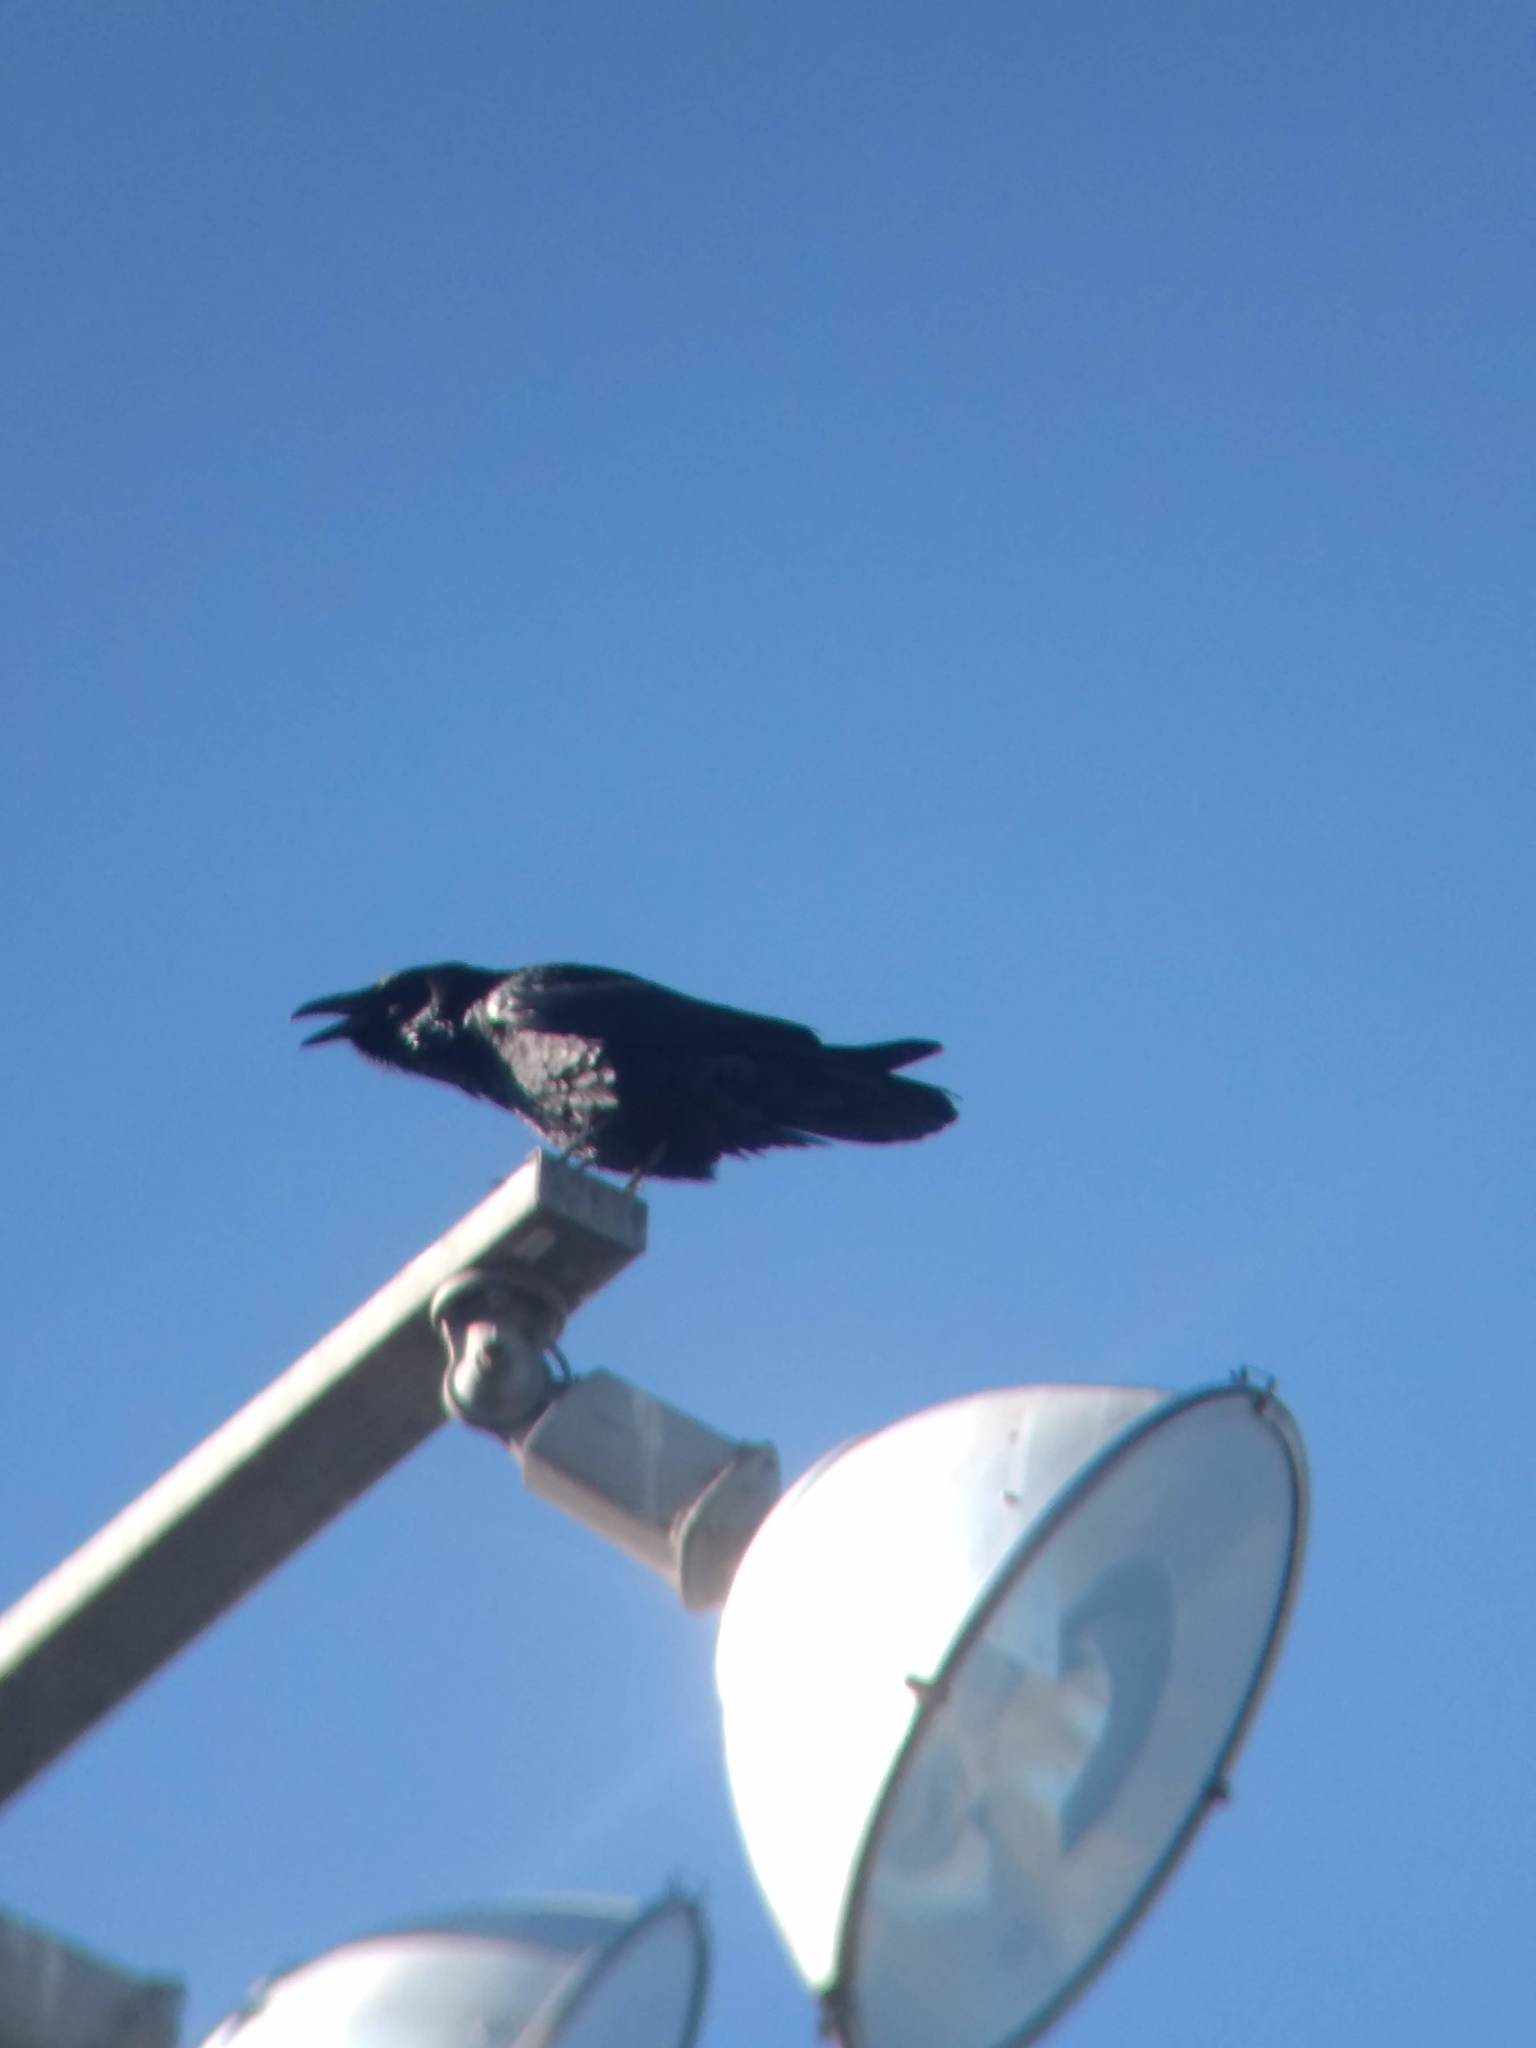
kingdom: Animalia
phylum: Chordata
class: Aves
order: Passeriformes
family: Corvidae
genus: Corvus
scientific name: Corvus corax
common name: Common raven
